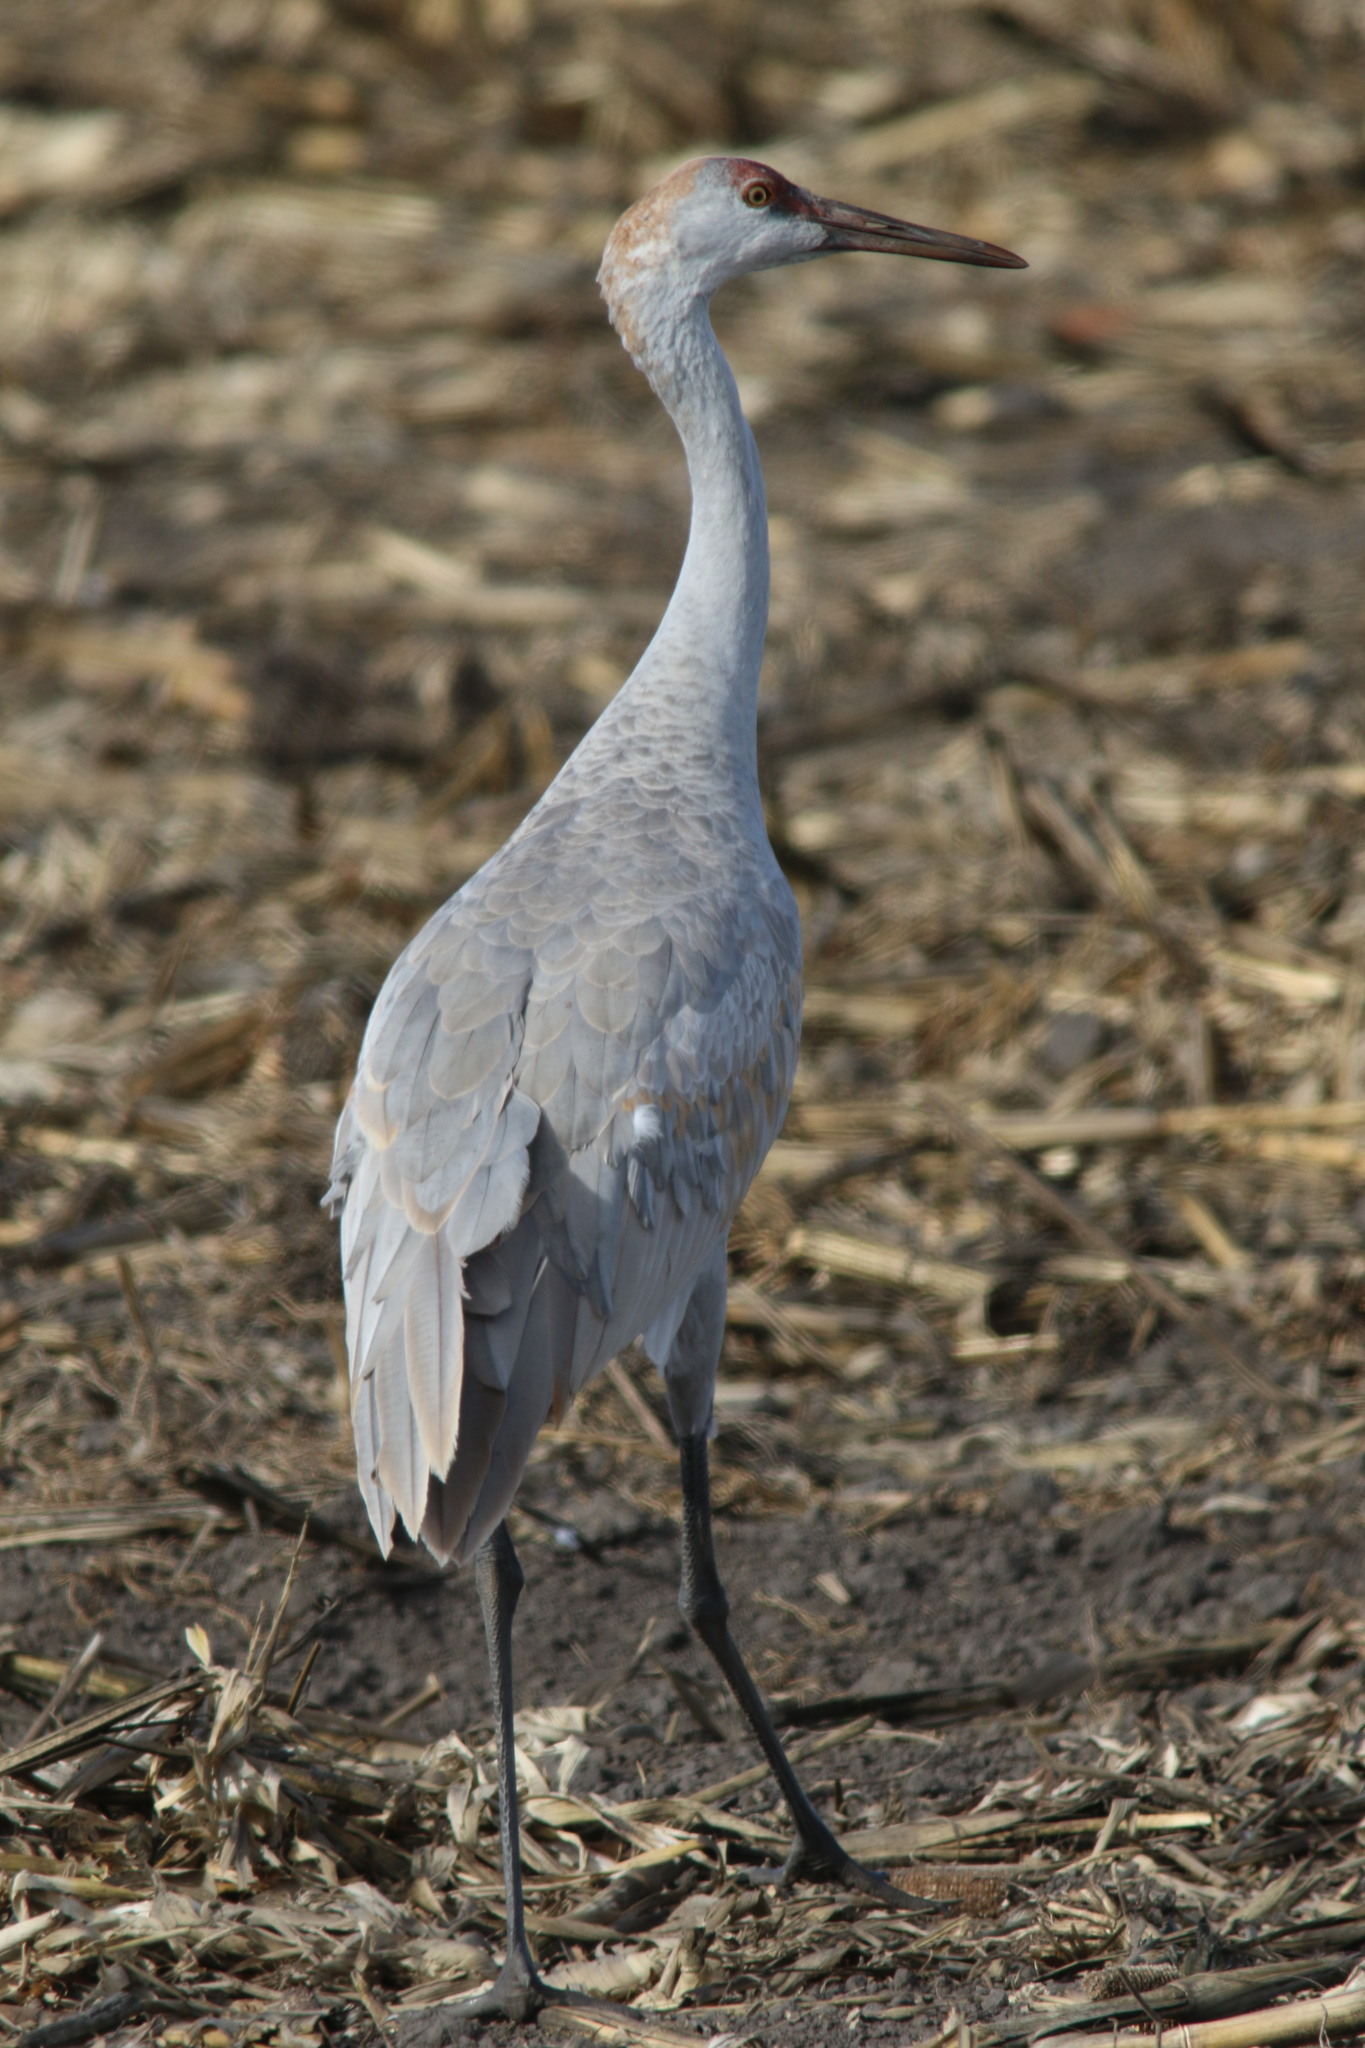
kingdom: Animalia
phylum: Chordata
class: Aves
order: Gruiformes
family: Gruidae
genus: Grus
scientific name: Grus canadensis
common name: Sandhill crane
